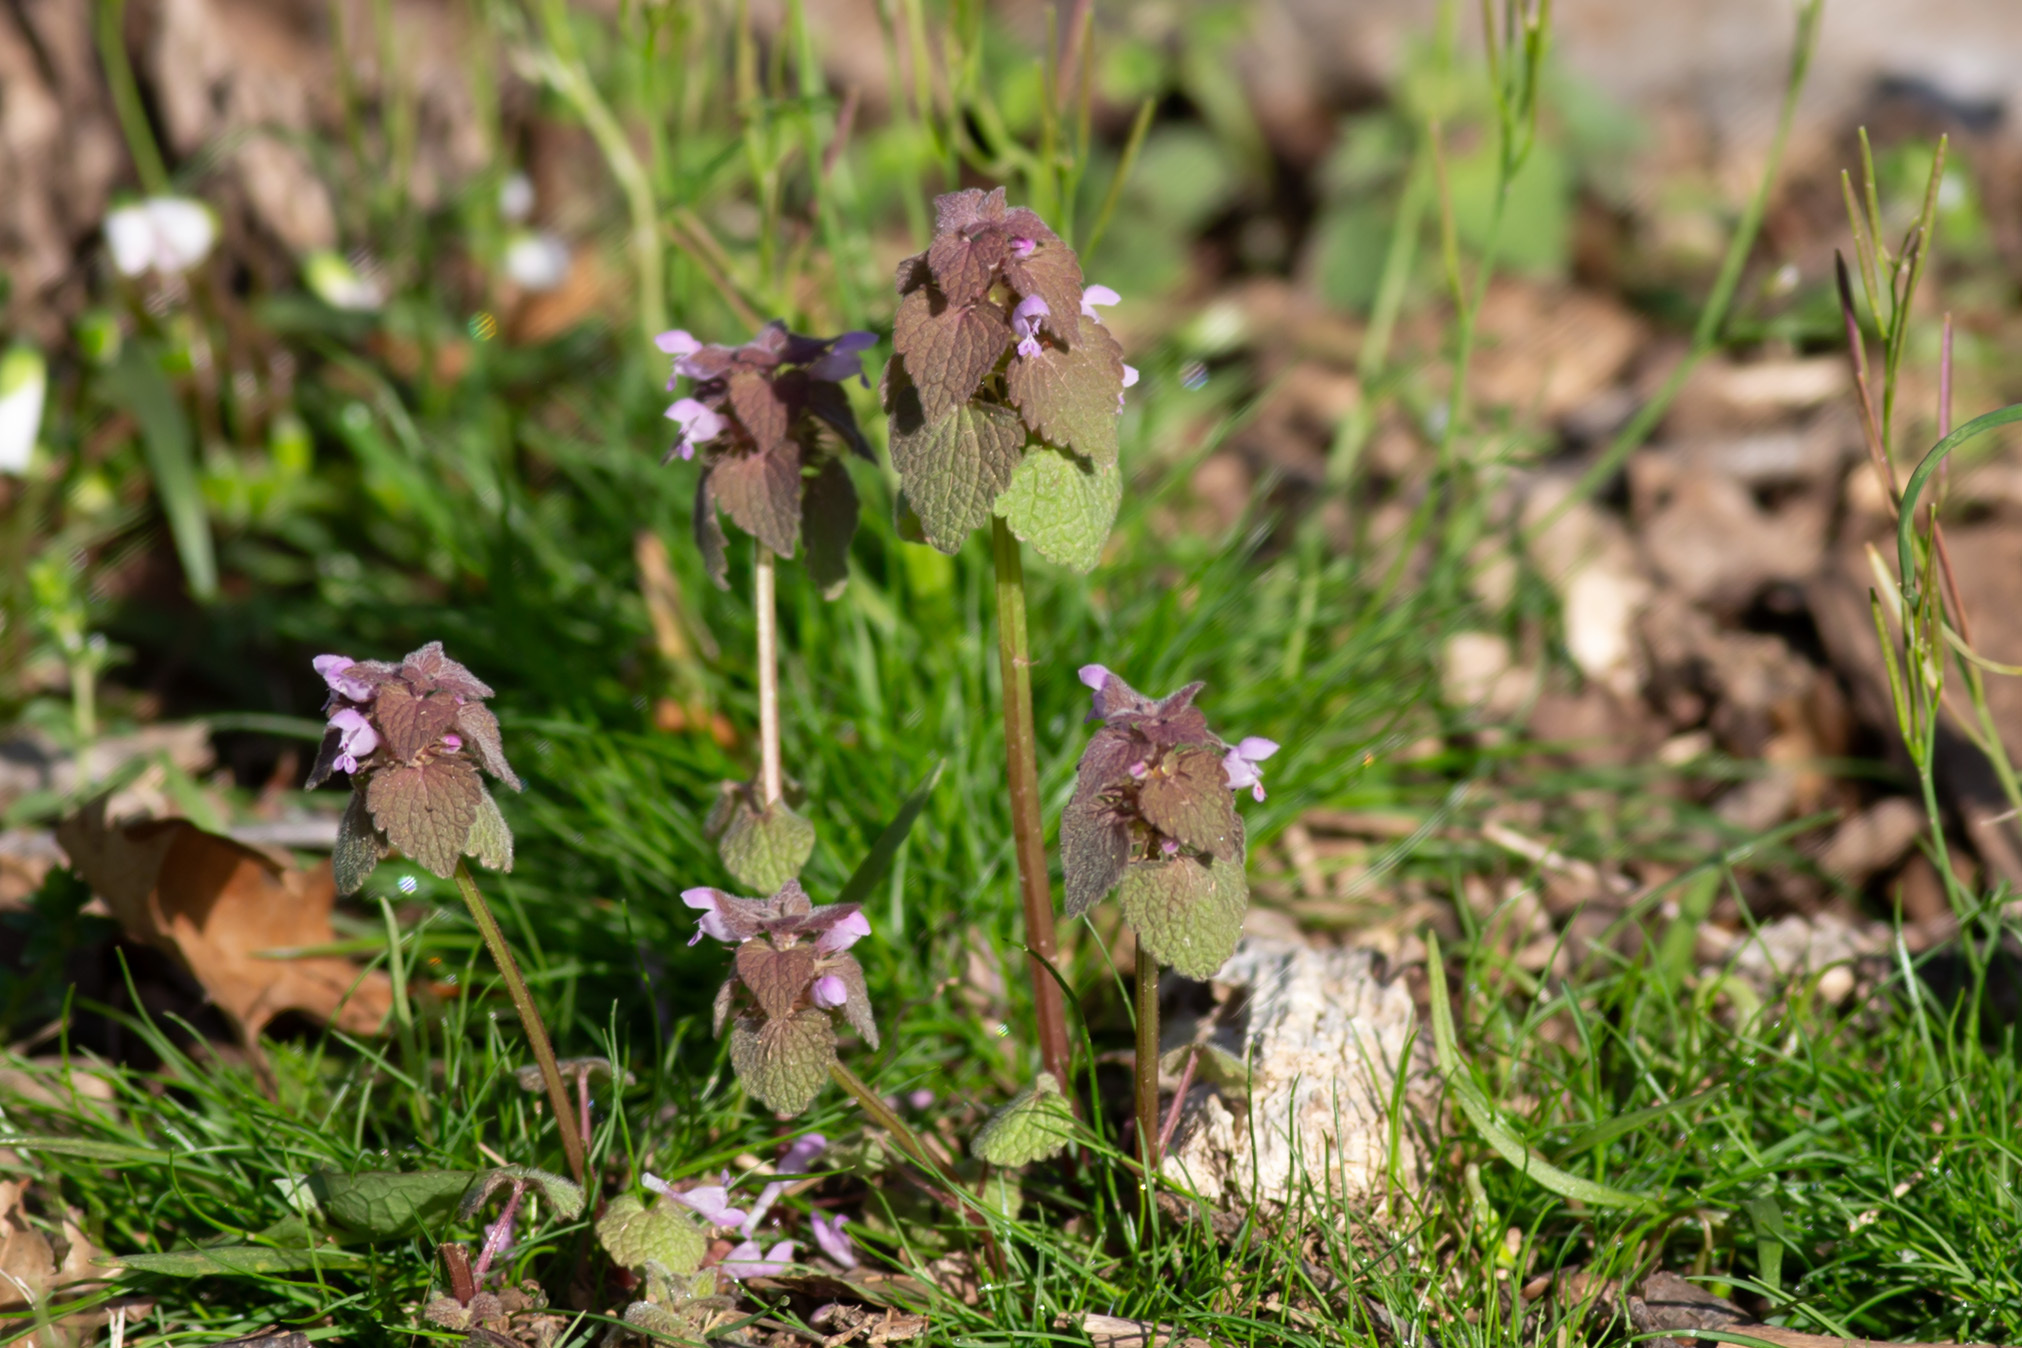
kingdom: Plantae
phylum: Tracheophyta
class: Magnoliopsida
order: Lamiales
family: Lamiaceae
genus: Lamium
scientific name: Lamium purpureum
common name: Red dead-nettle
